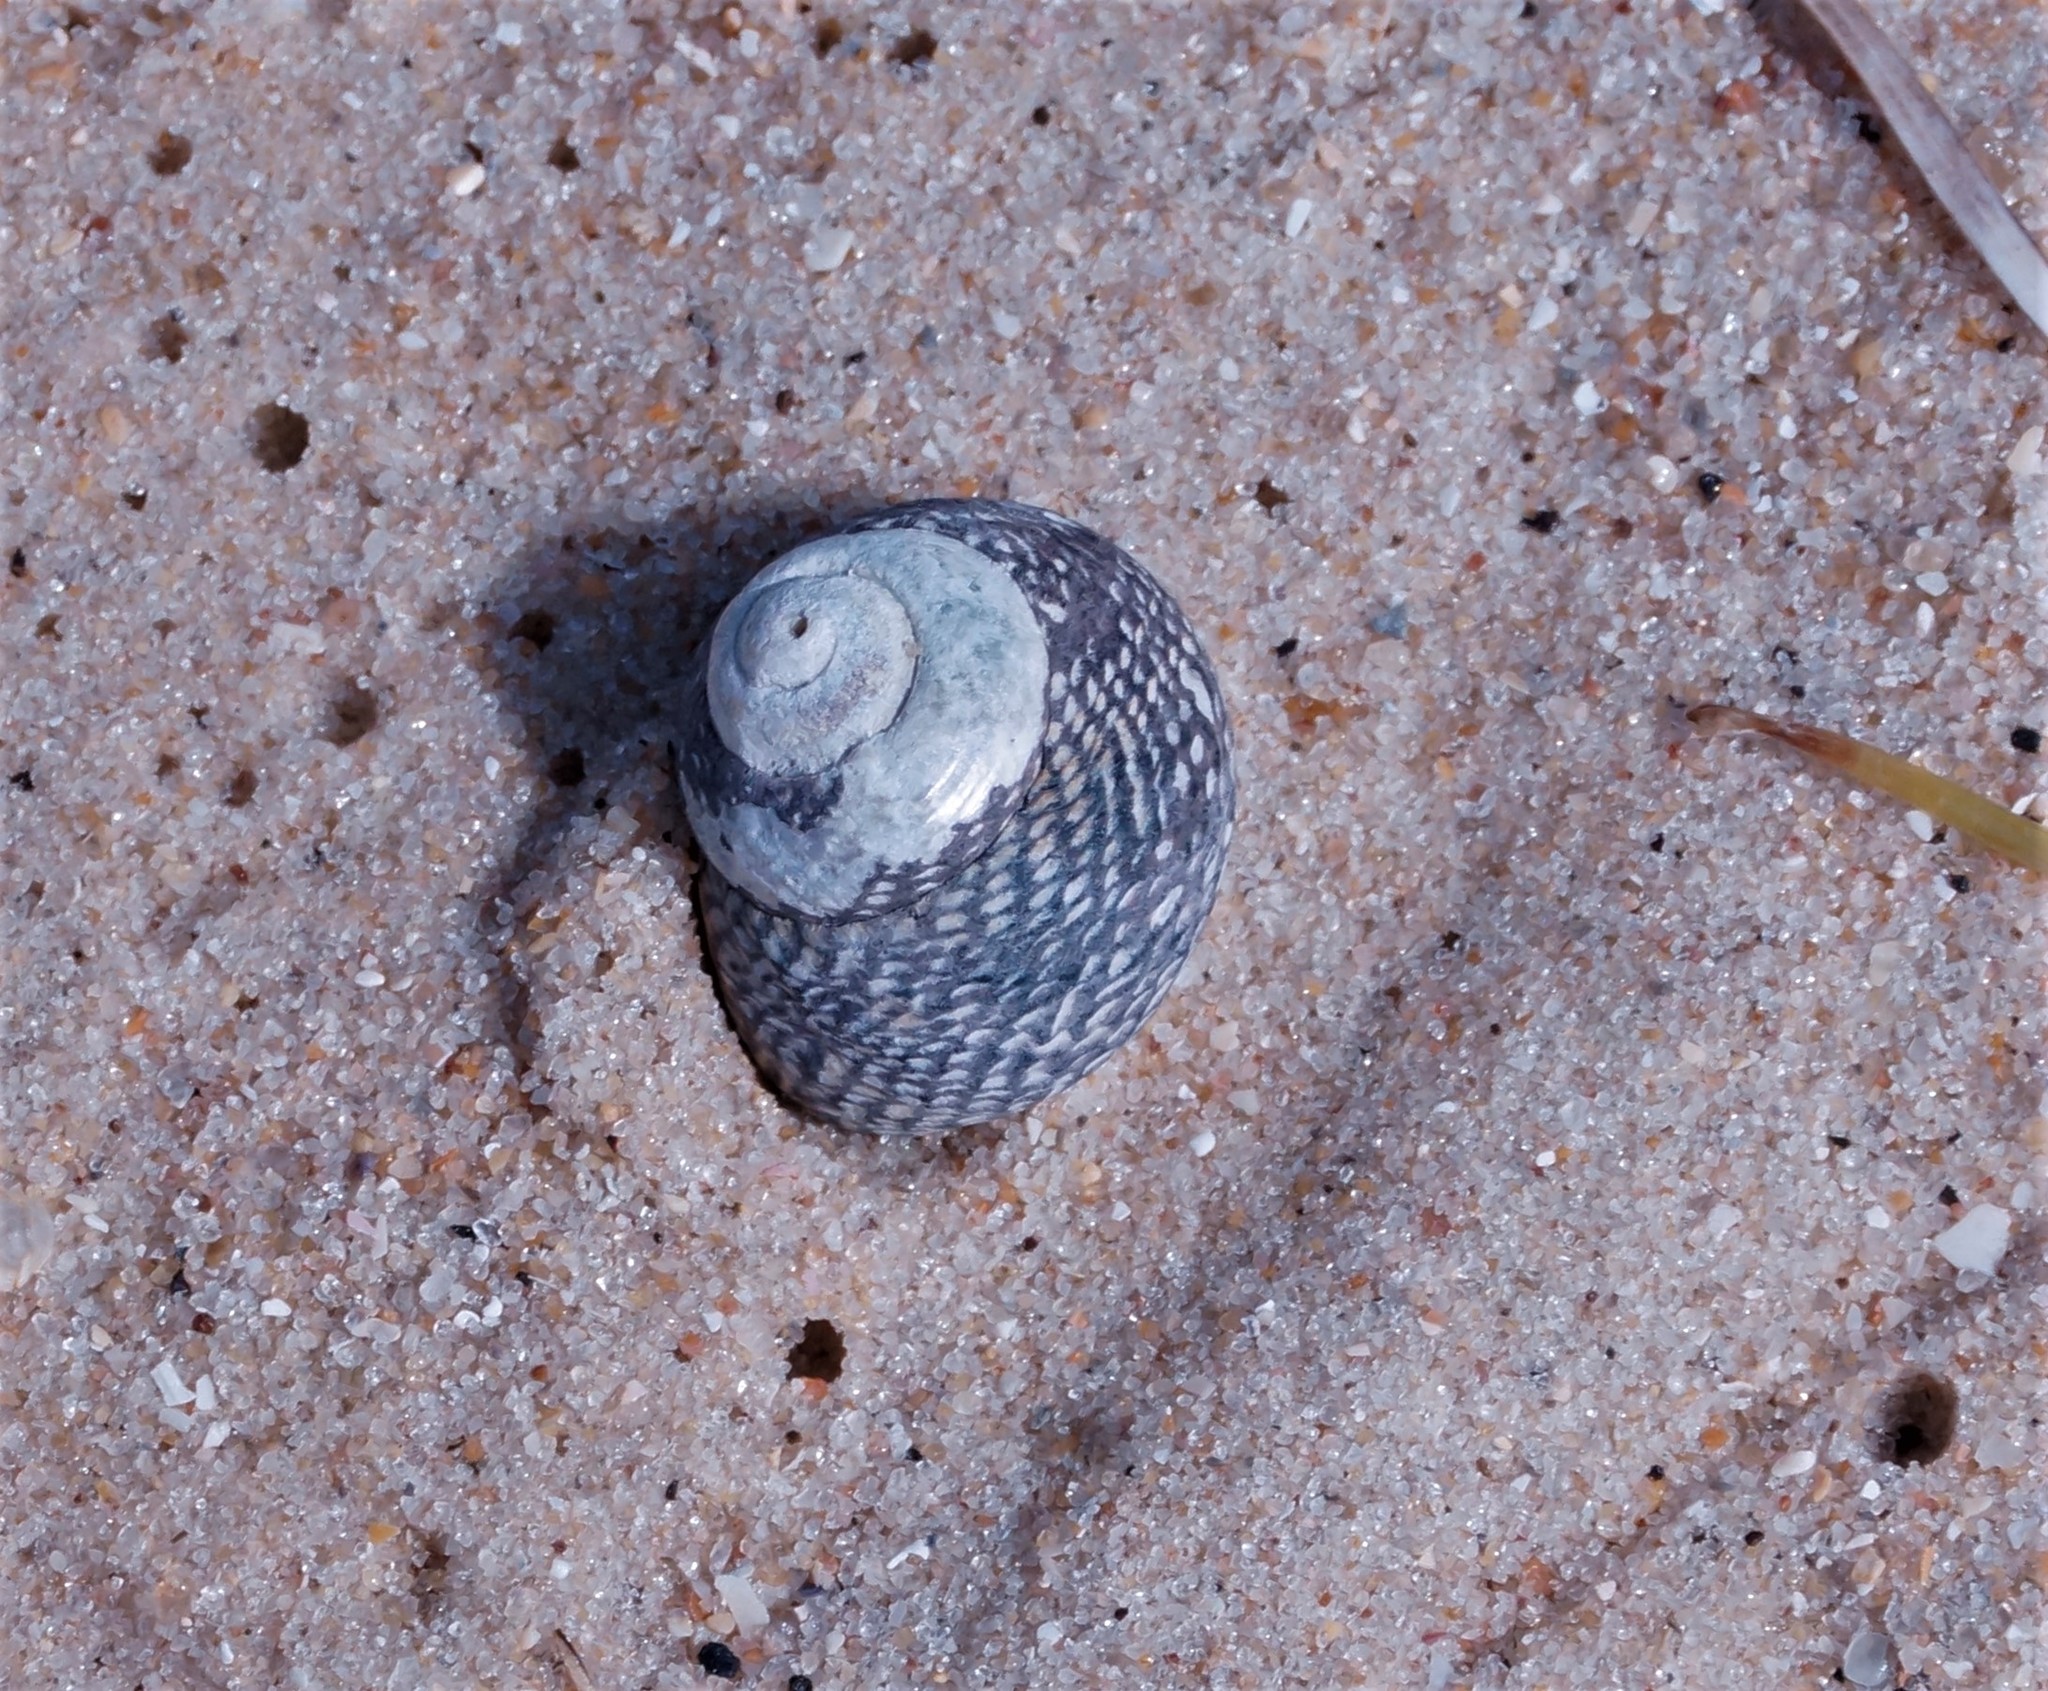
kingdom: Animalia
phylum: Mollusca
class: Gastropoda
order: Trochida
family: Trochidae
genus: Chlorodiloma
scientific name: Chlorodiloma odontis
